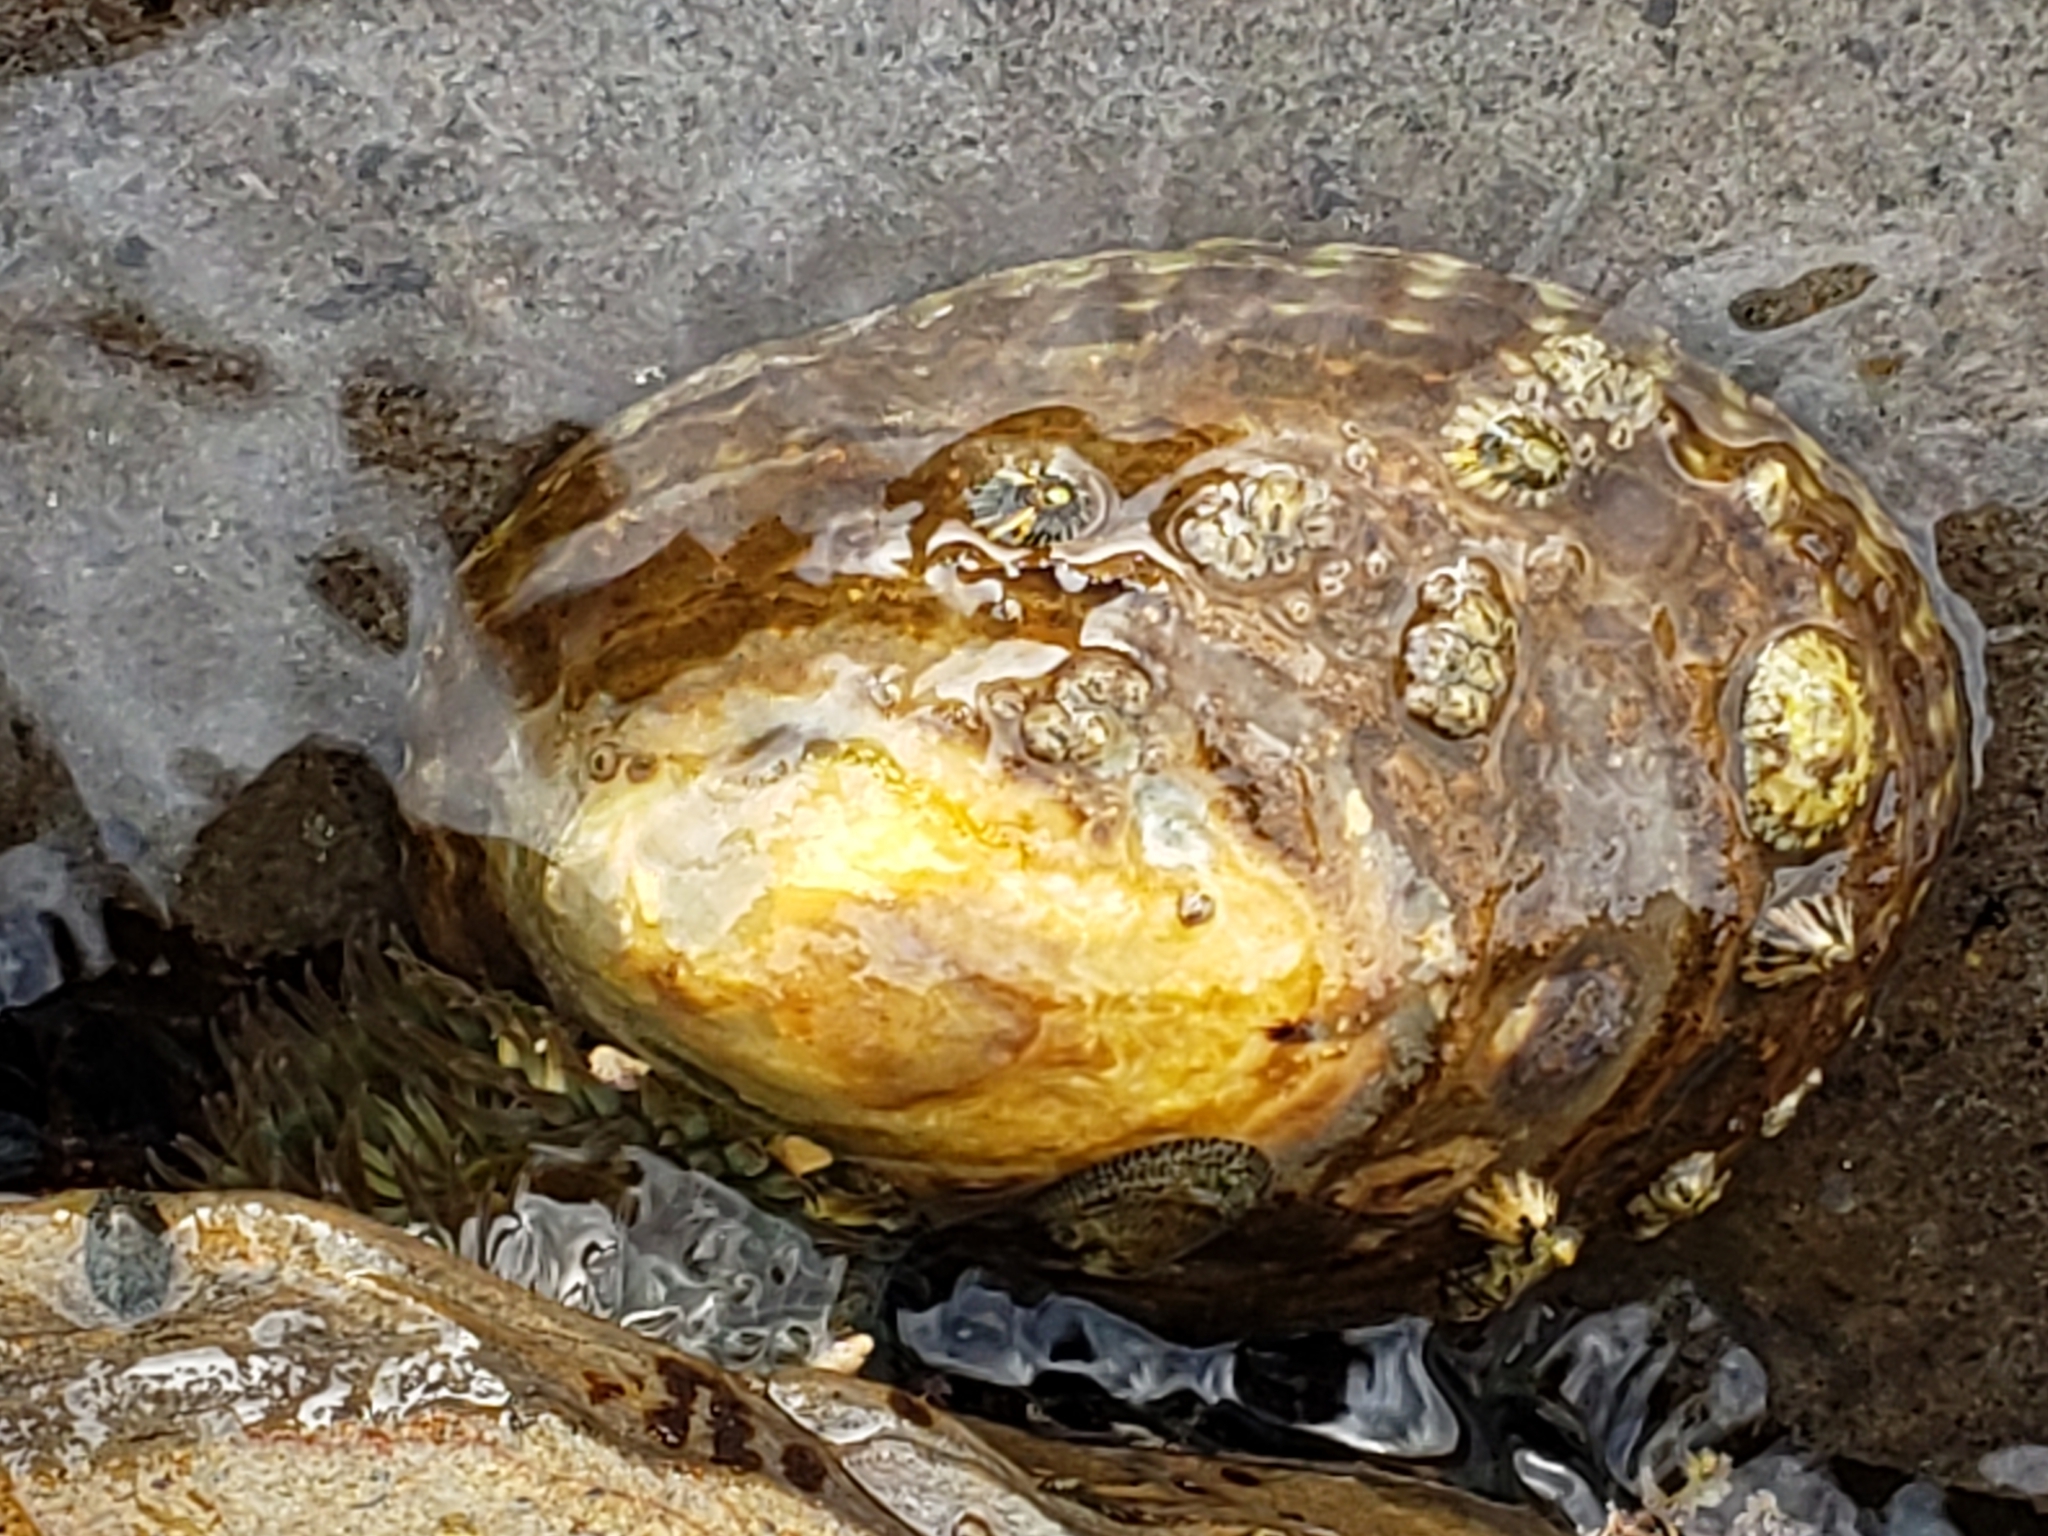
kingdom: Animalia
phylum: Mollusca
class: Gastropoda
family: Lottiidae
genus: Lottia
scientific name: Lottia gigantea
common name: Owl limpet
